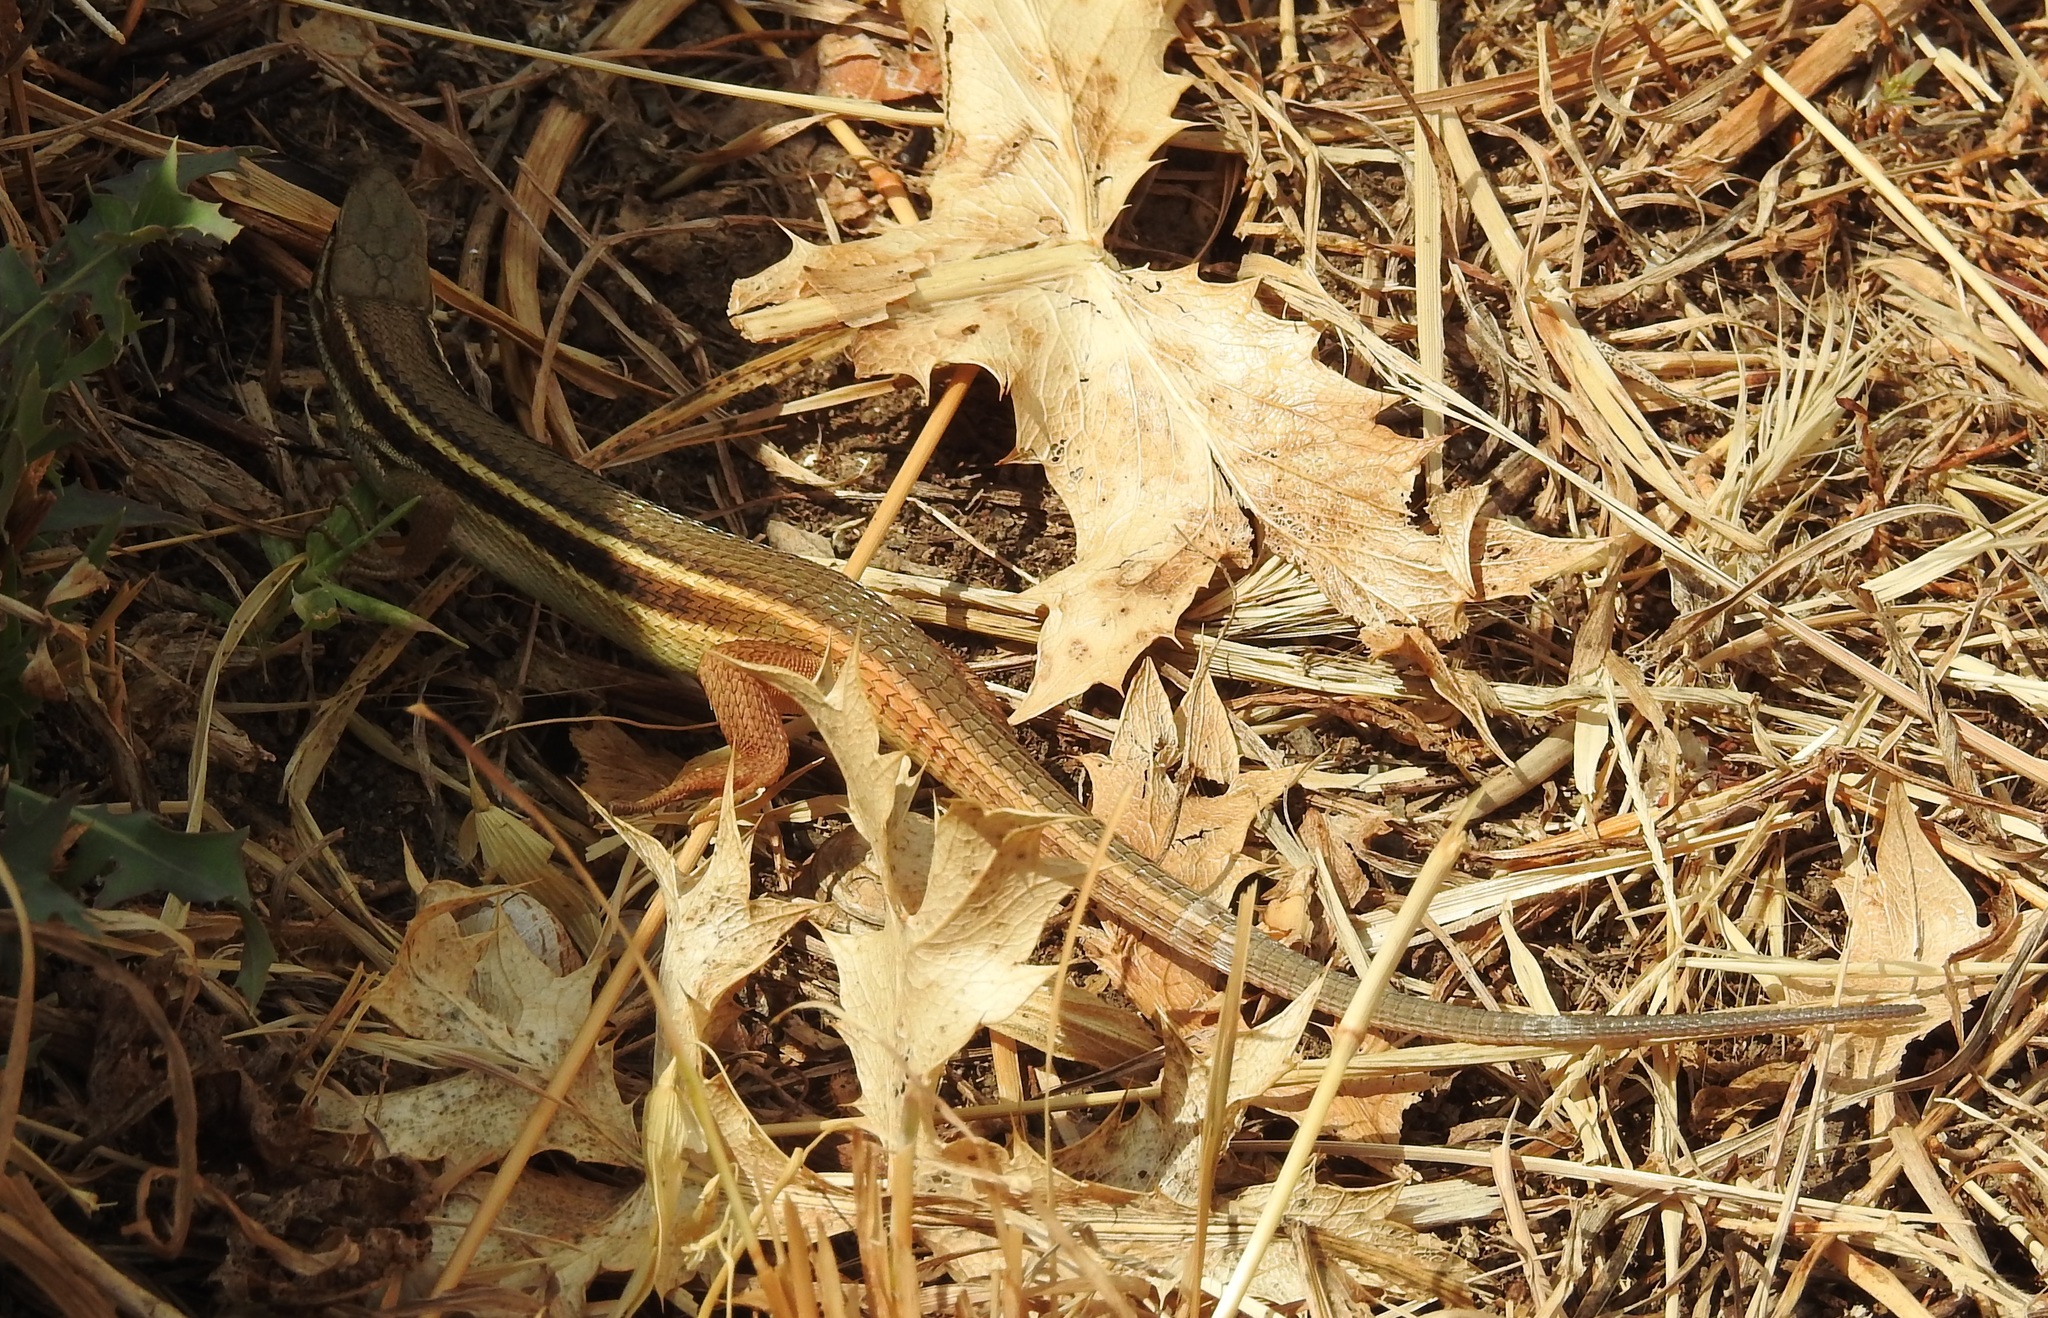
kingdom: Animalia
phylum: Chordata
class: Squamata
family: Lacertidae
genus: Psammodromus
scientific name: Psammodromus algirus
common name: Algerian psammodromus
